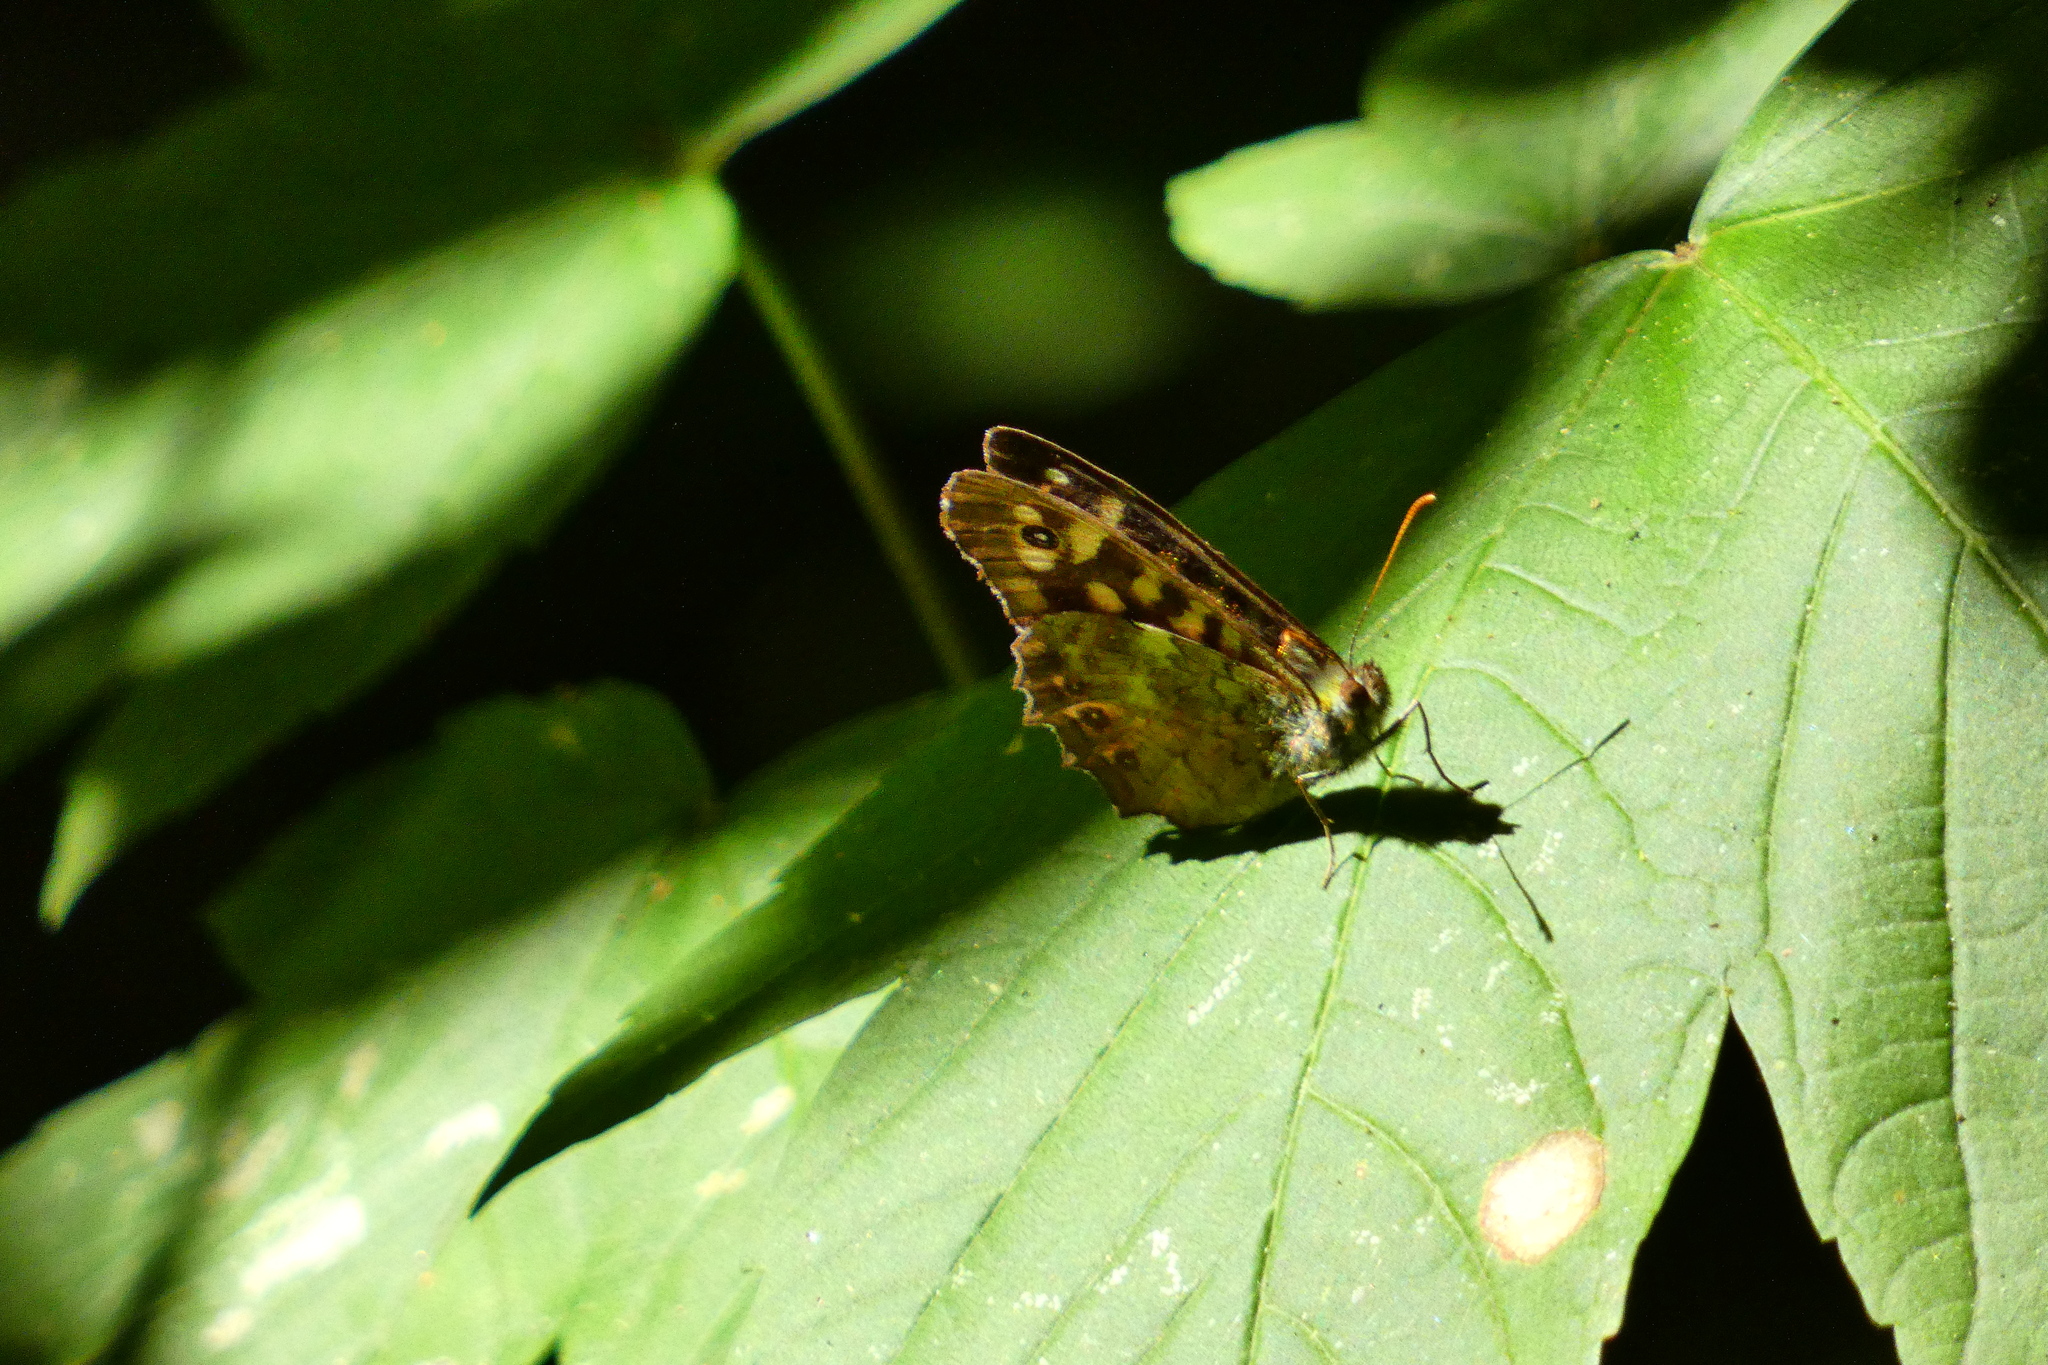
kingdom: Animalia
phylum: Arthropoda
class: Insecta
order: Lepidoptera
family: Nymphalidae
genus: Pararge
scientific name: Pararge aegeria
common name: Speckled wood
